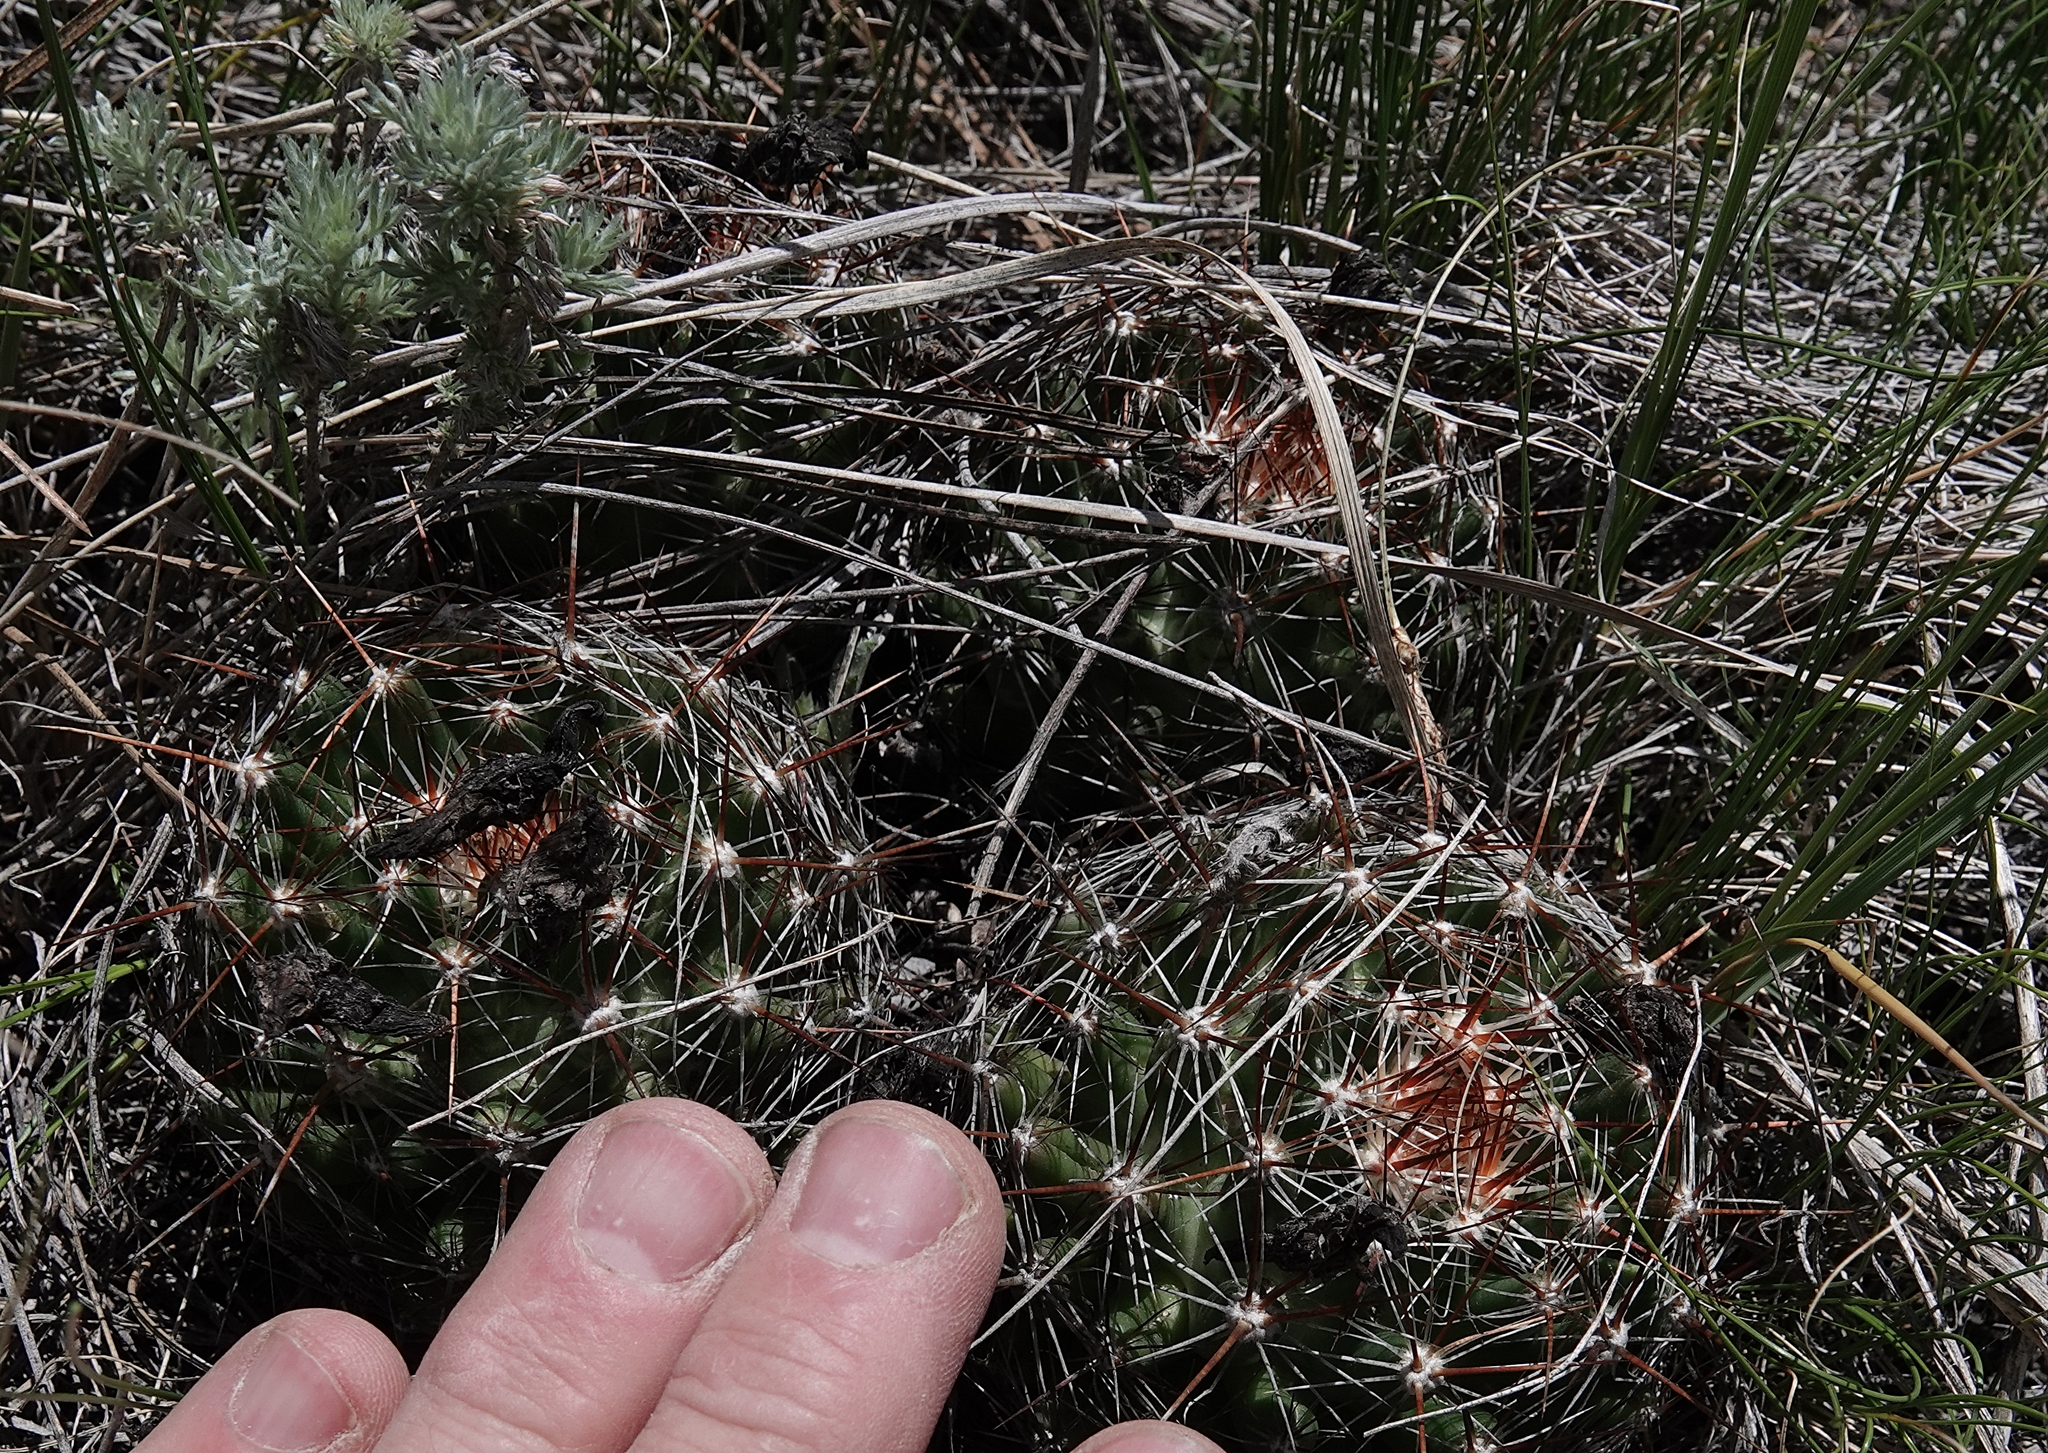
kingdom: Plantae
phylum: Tracheophyta
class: Magnoliopsida
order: Caryophyllales
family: Cactaceae
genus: Pelecyphora
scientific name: Pelecyphora vivipara
